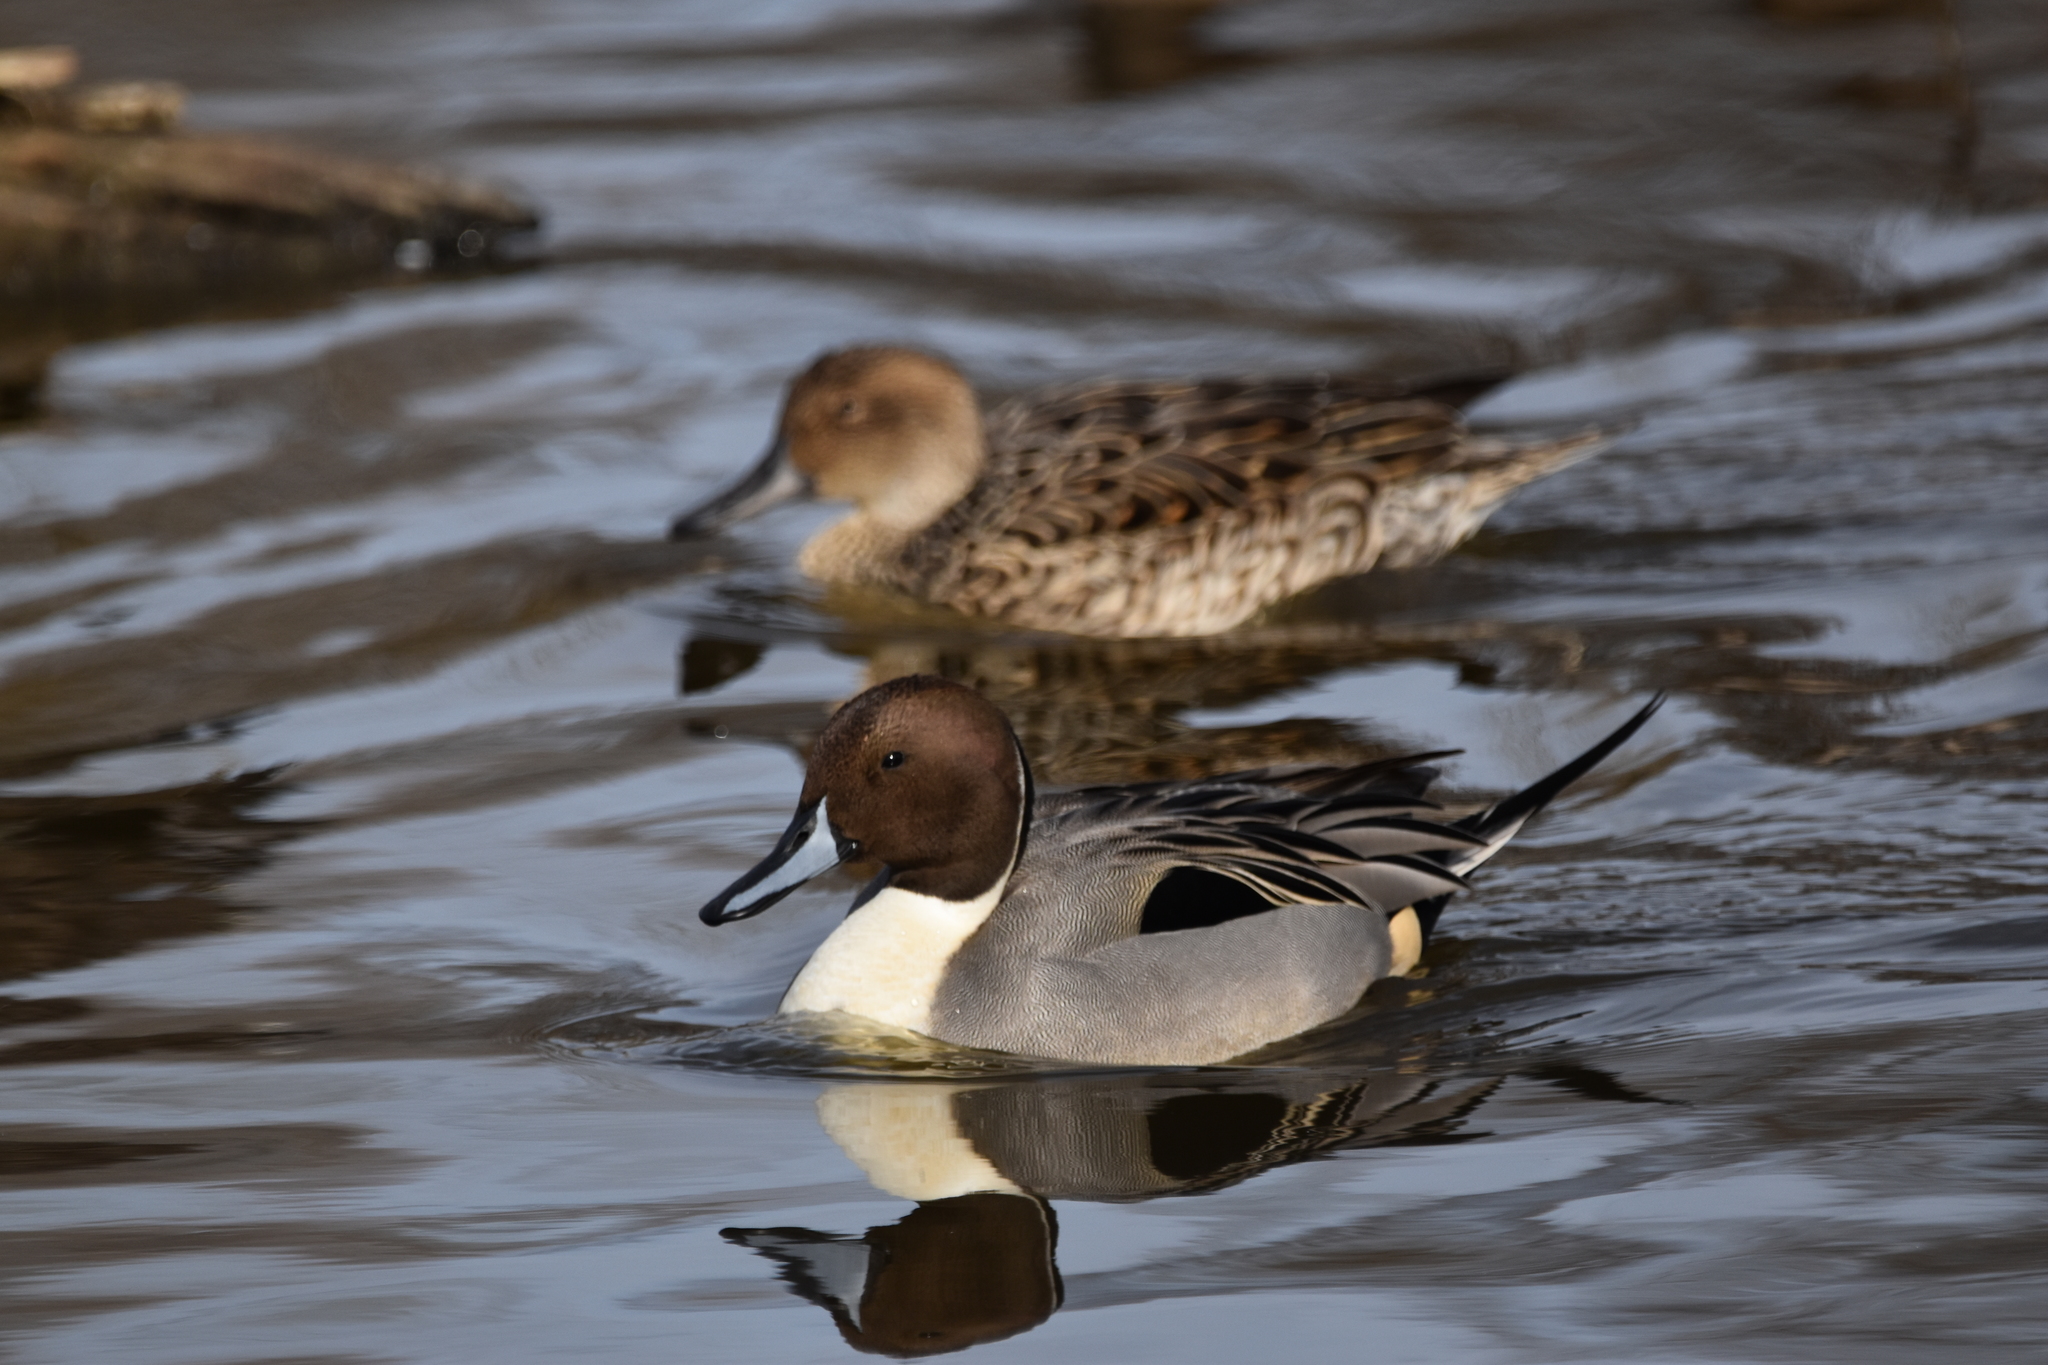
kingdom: Animalia
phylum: Chordata
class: Aves
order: Anseriformes
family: Anatidae
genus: Anas
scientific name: Anas acuta
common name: Northern pintail
